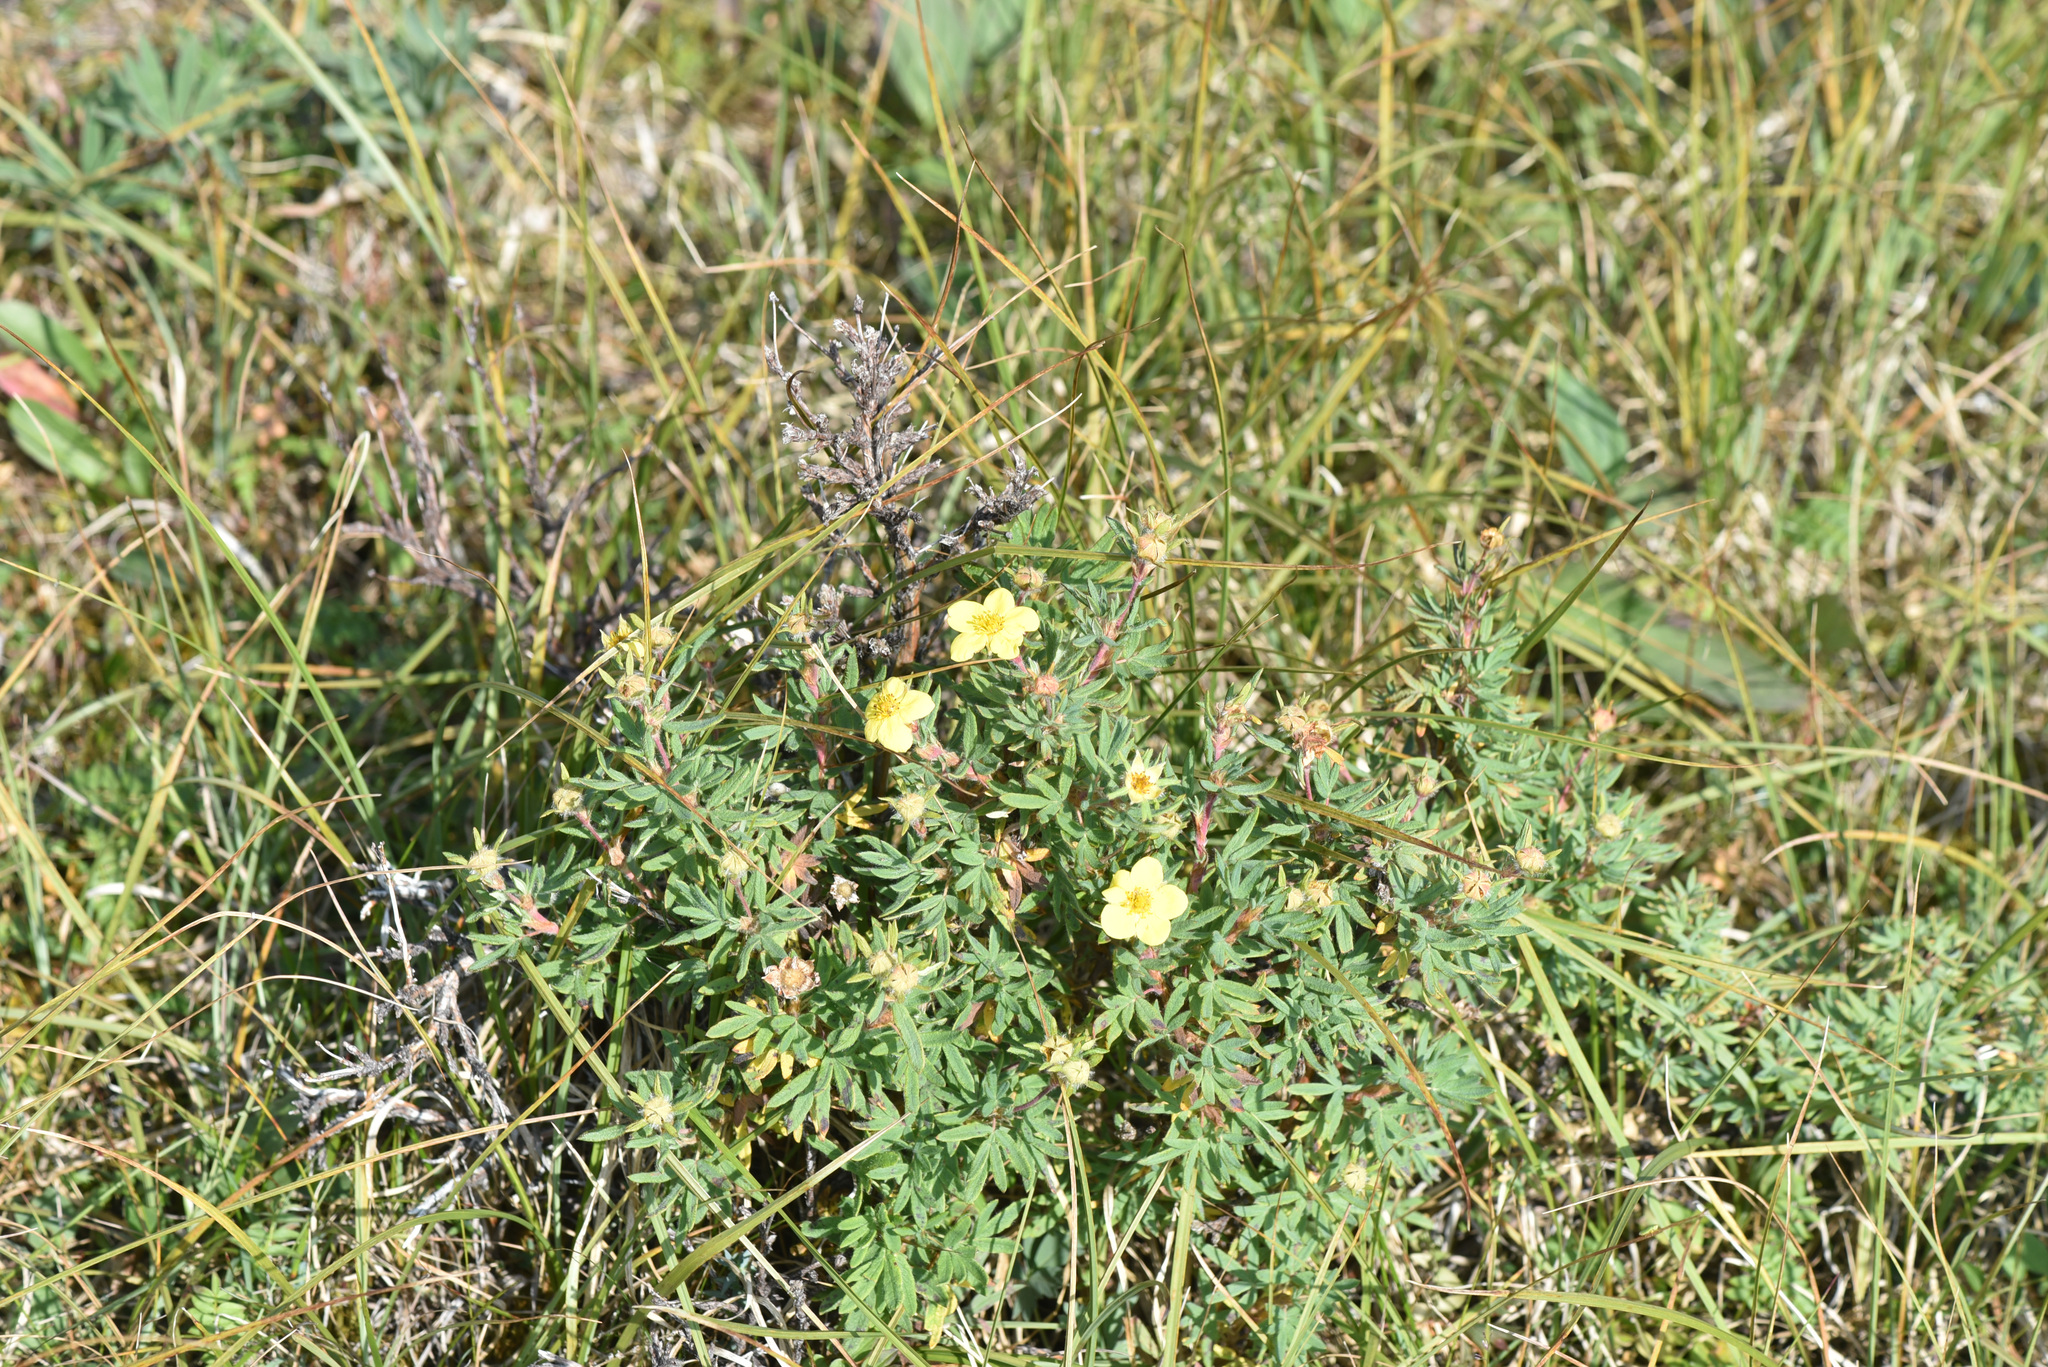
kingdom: Plantae
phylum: Tracheophyta
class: Magnoliopsida
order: Rosales
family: Rosaceae
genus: Dasiphora
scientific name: Dasiphora fruticosa
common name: Shrubby cinquefoil
